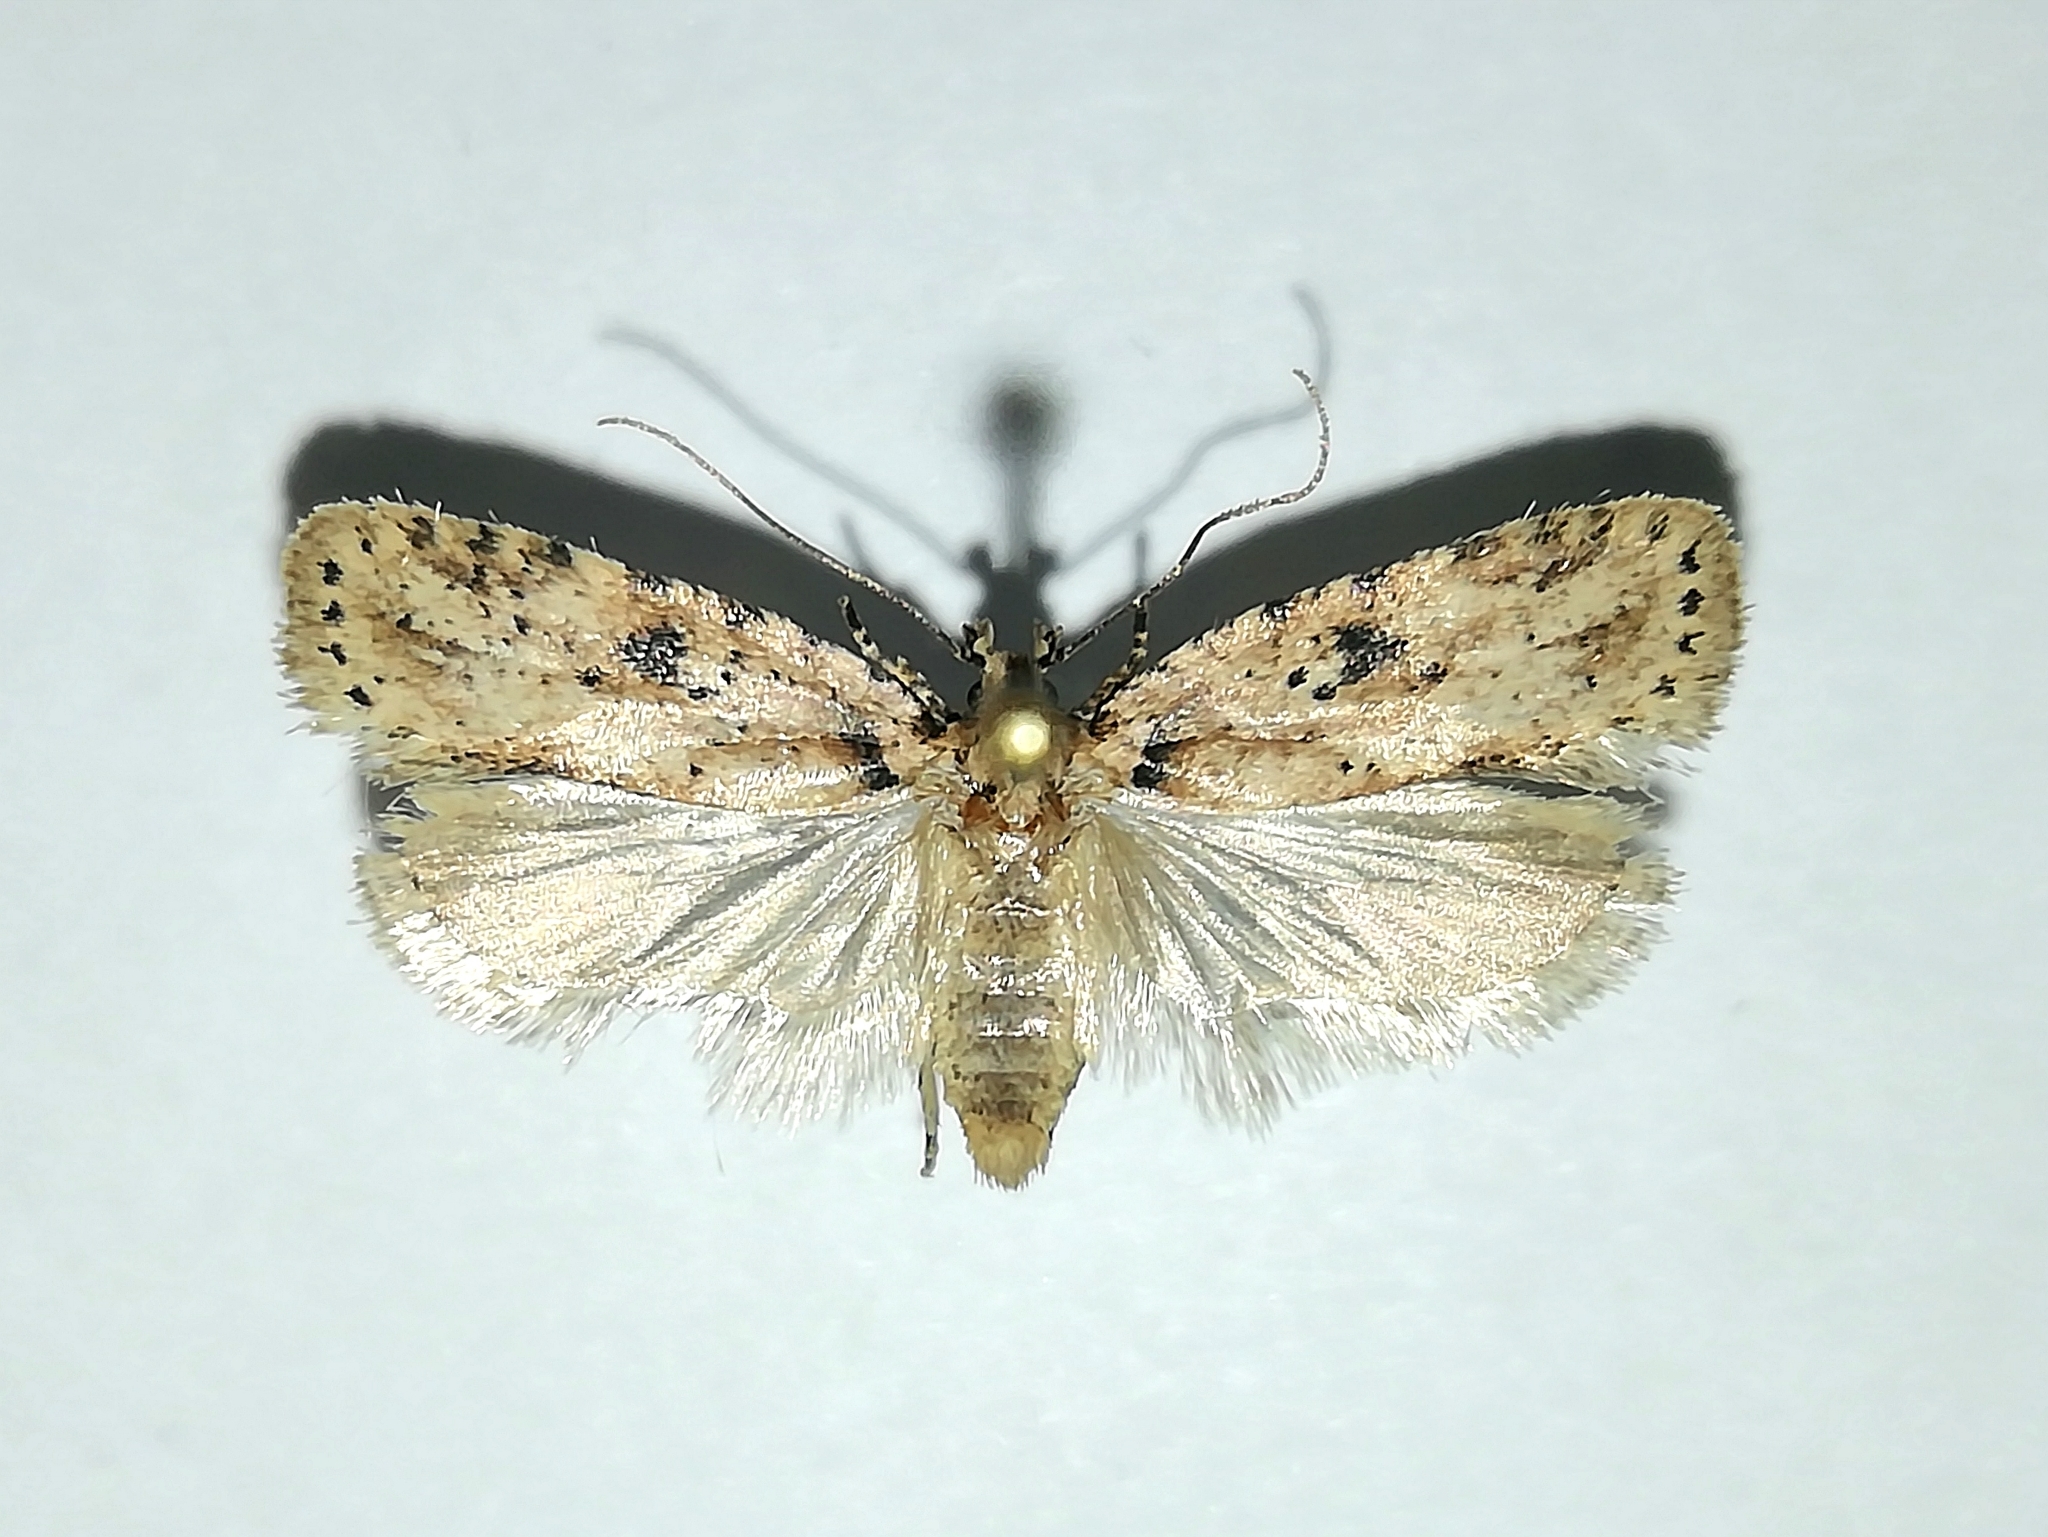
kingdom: Animalia
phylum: Arthropoda
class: Insecta
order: Lepidoptera
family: Depressariidae
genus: Agonopterix
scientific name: Agonopterix arenella
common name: Brindled flat-body
